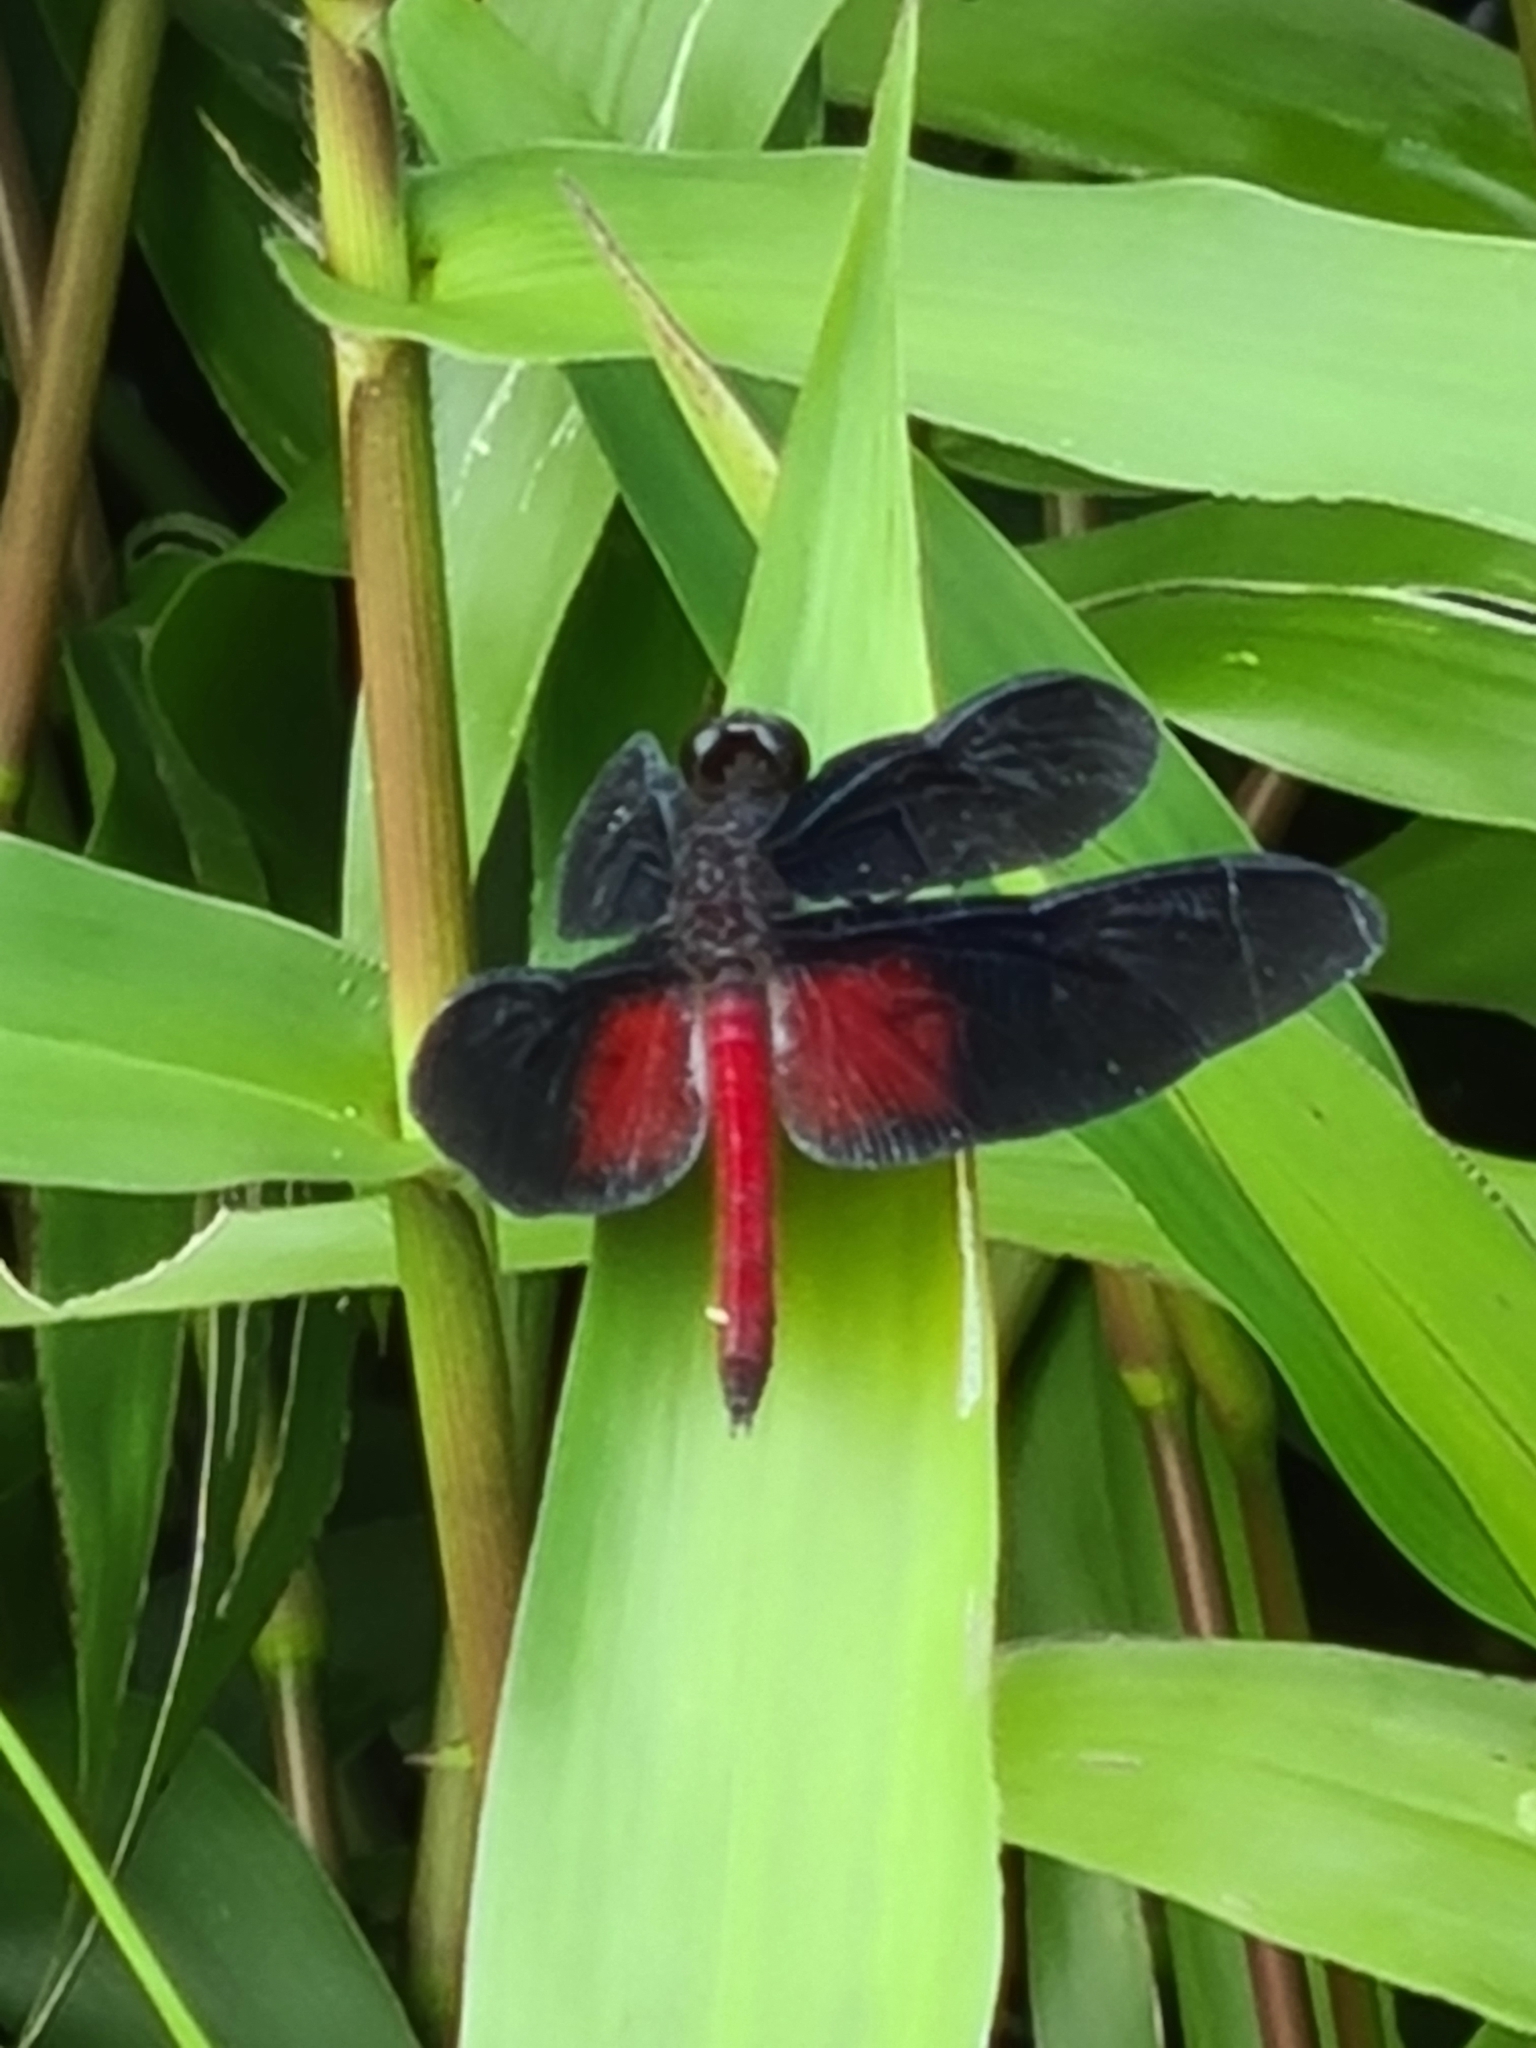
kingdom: Animalia
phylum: Arthropoda
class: Insecta
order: Odonata
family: Libellulidae
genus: Diastatops
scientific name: Diastatops pullata
